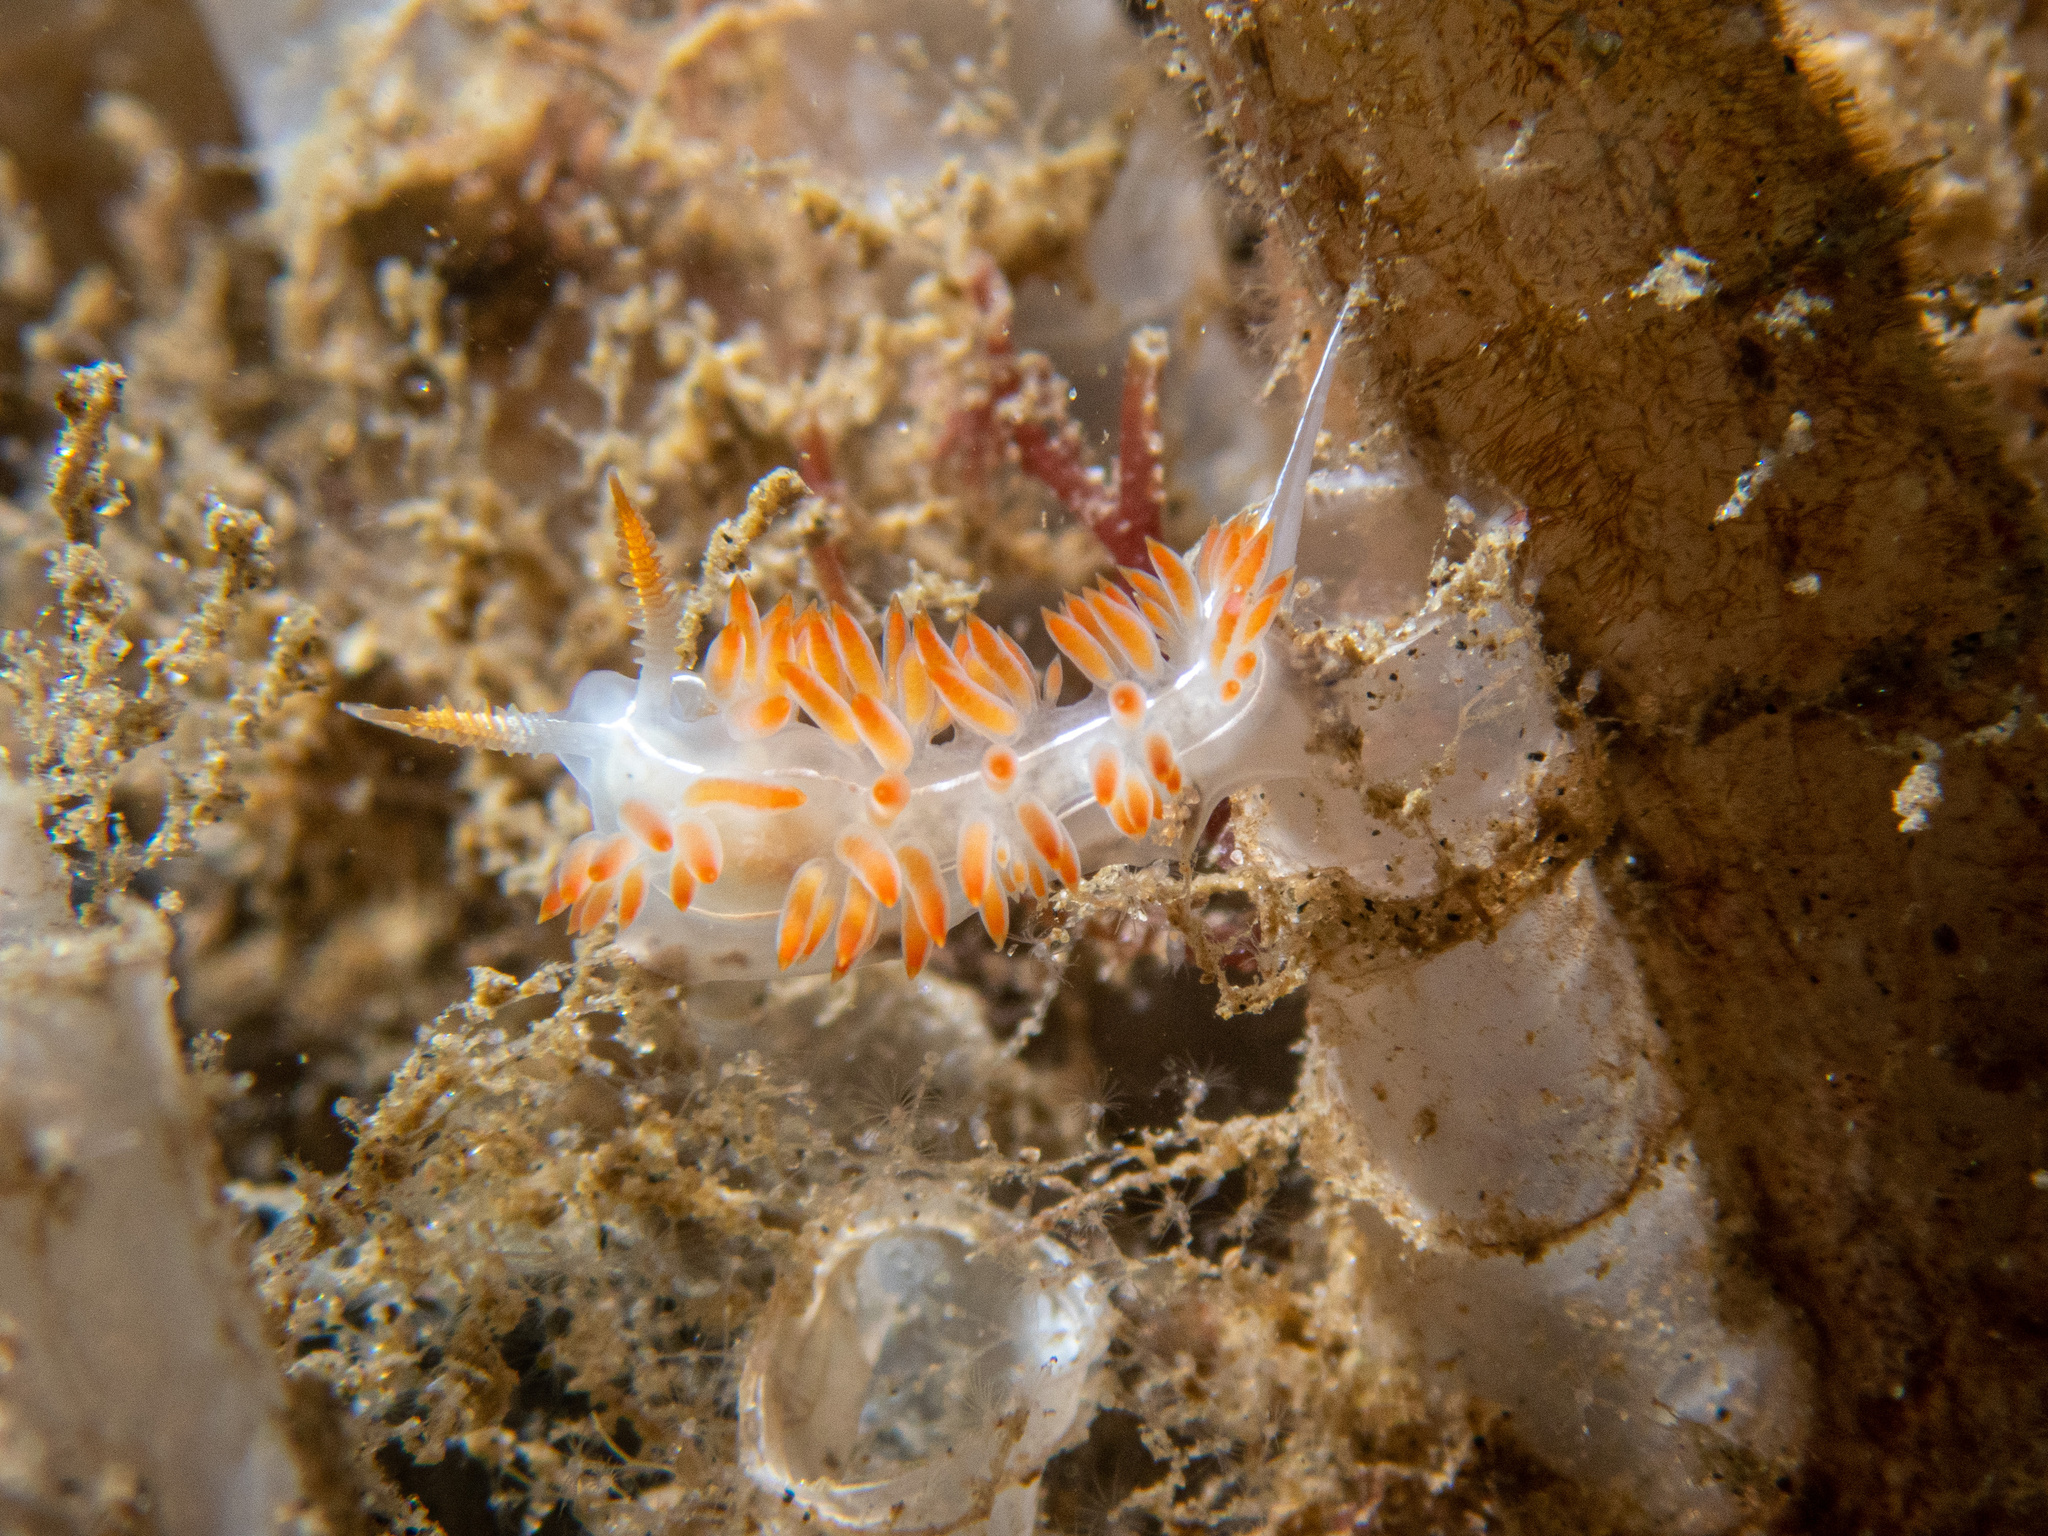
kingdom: Animalia
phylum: Mollusca
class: Gastropoda
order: Nudibranchia
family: Coryphellidae
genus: Coryphella
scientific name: Coryphella trilineata
